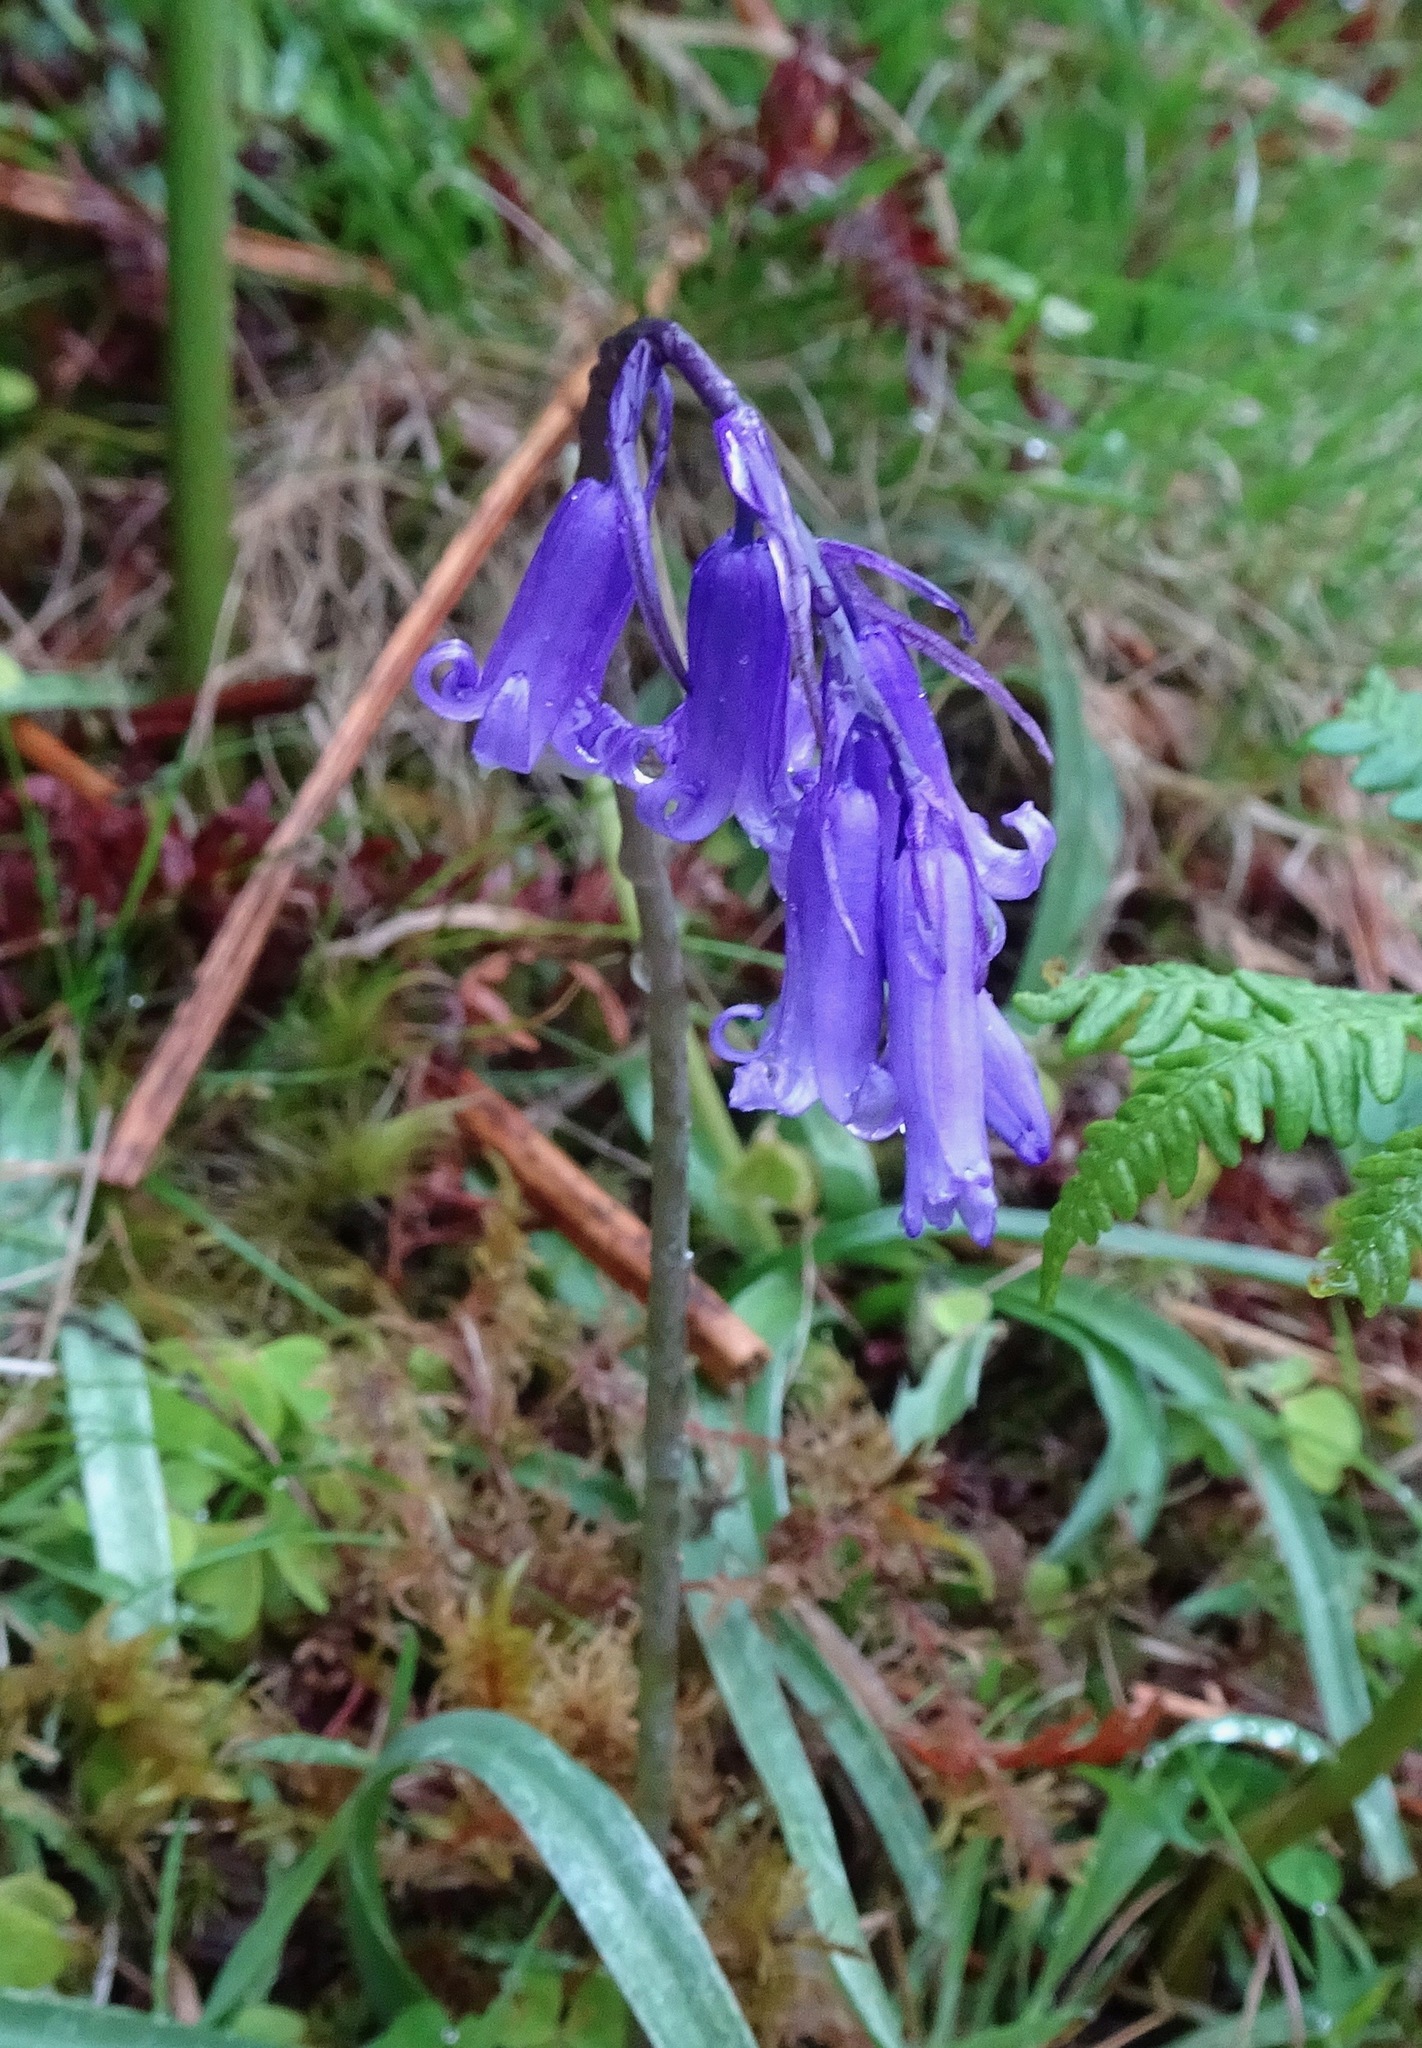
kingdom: Plantae
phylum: Tracheophyta
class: Liliopsida
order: Asparagales
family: Asparagaceae
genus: Hyacinthoides
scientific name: Hyacinthoides non-scripta
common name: Bluebell
